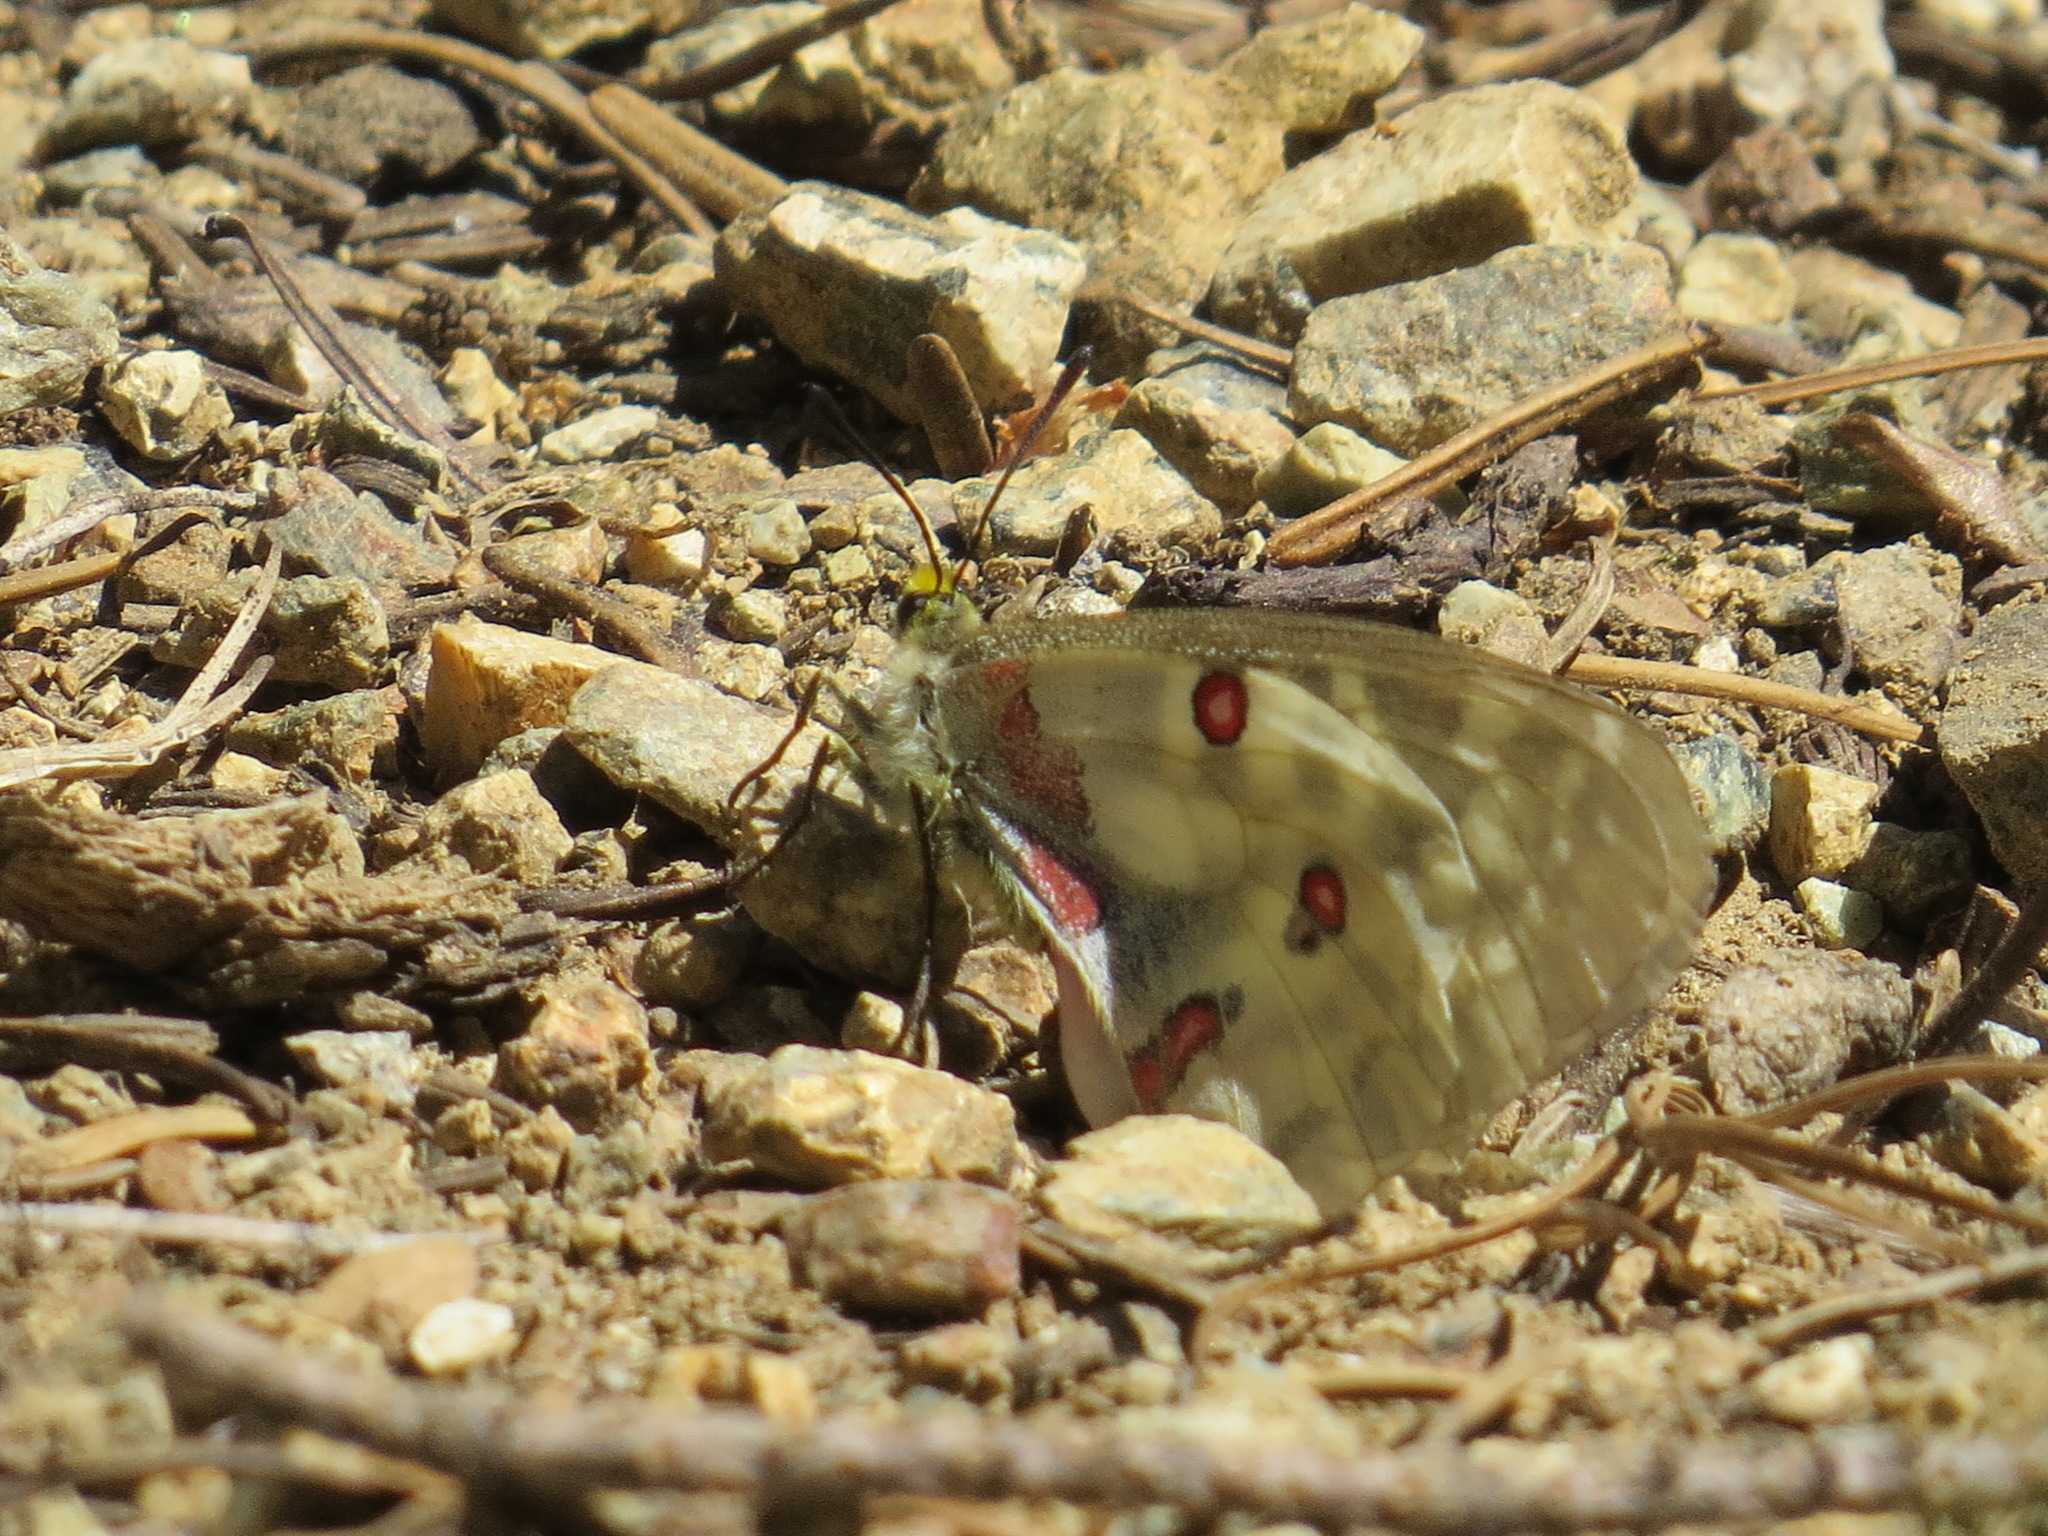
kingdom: Animalia
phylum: Arthropoda
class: Insecta
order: Lepidoptera
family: Papilionidae
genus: Parnassius
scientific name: Parnassius clodius
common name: American apollo
